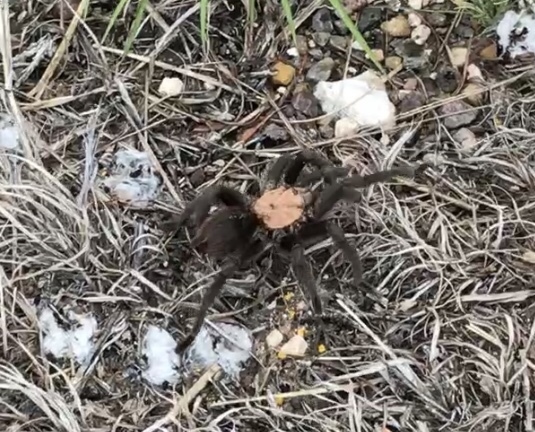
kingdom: Animalia
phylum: Arthropoda
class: Arachnida
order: Araneae
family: Theraphosidae
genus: Aphonopelma
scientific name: Aphonopelma hentzi
